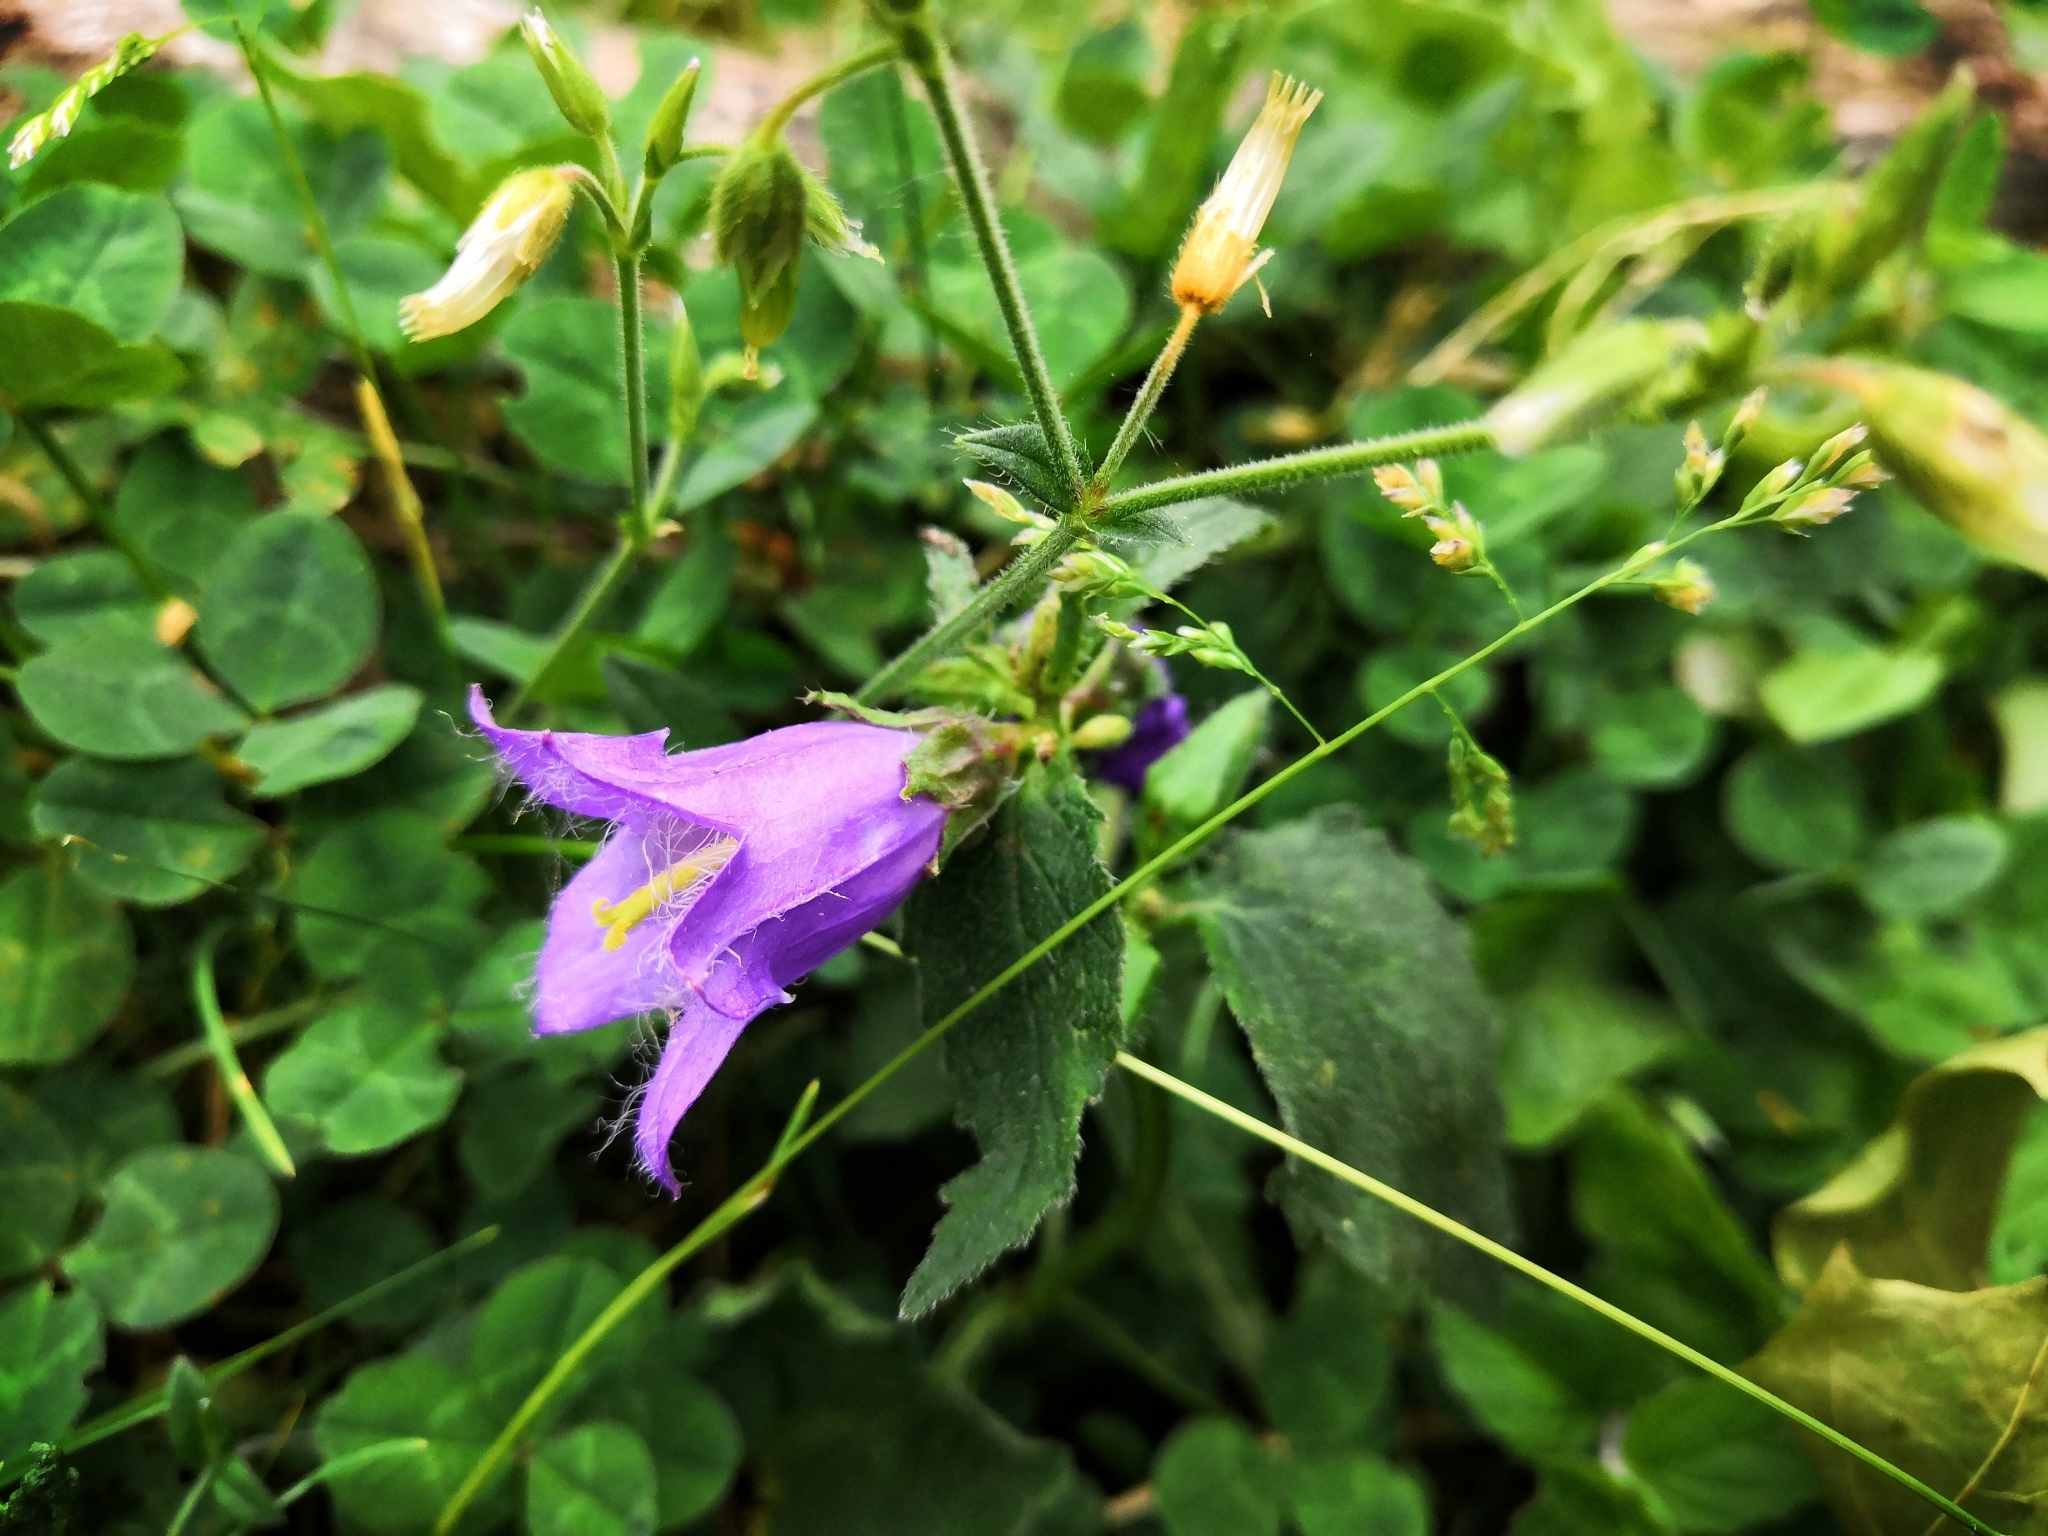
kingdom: Plantae
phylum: Tracheophyta
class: Magnoliopsida
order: Asterales
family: Campanulaceae
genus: Campanula
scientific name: Campanula trachelium
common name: Nettle-leaved bellflower
